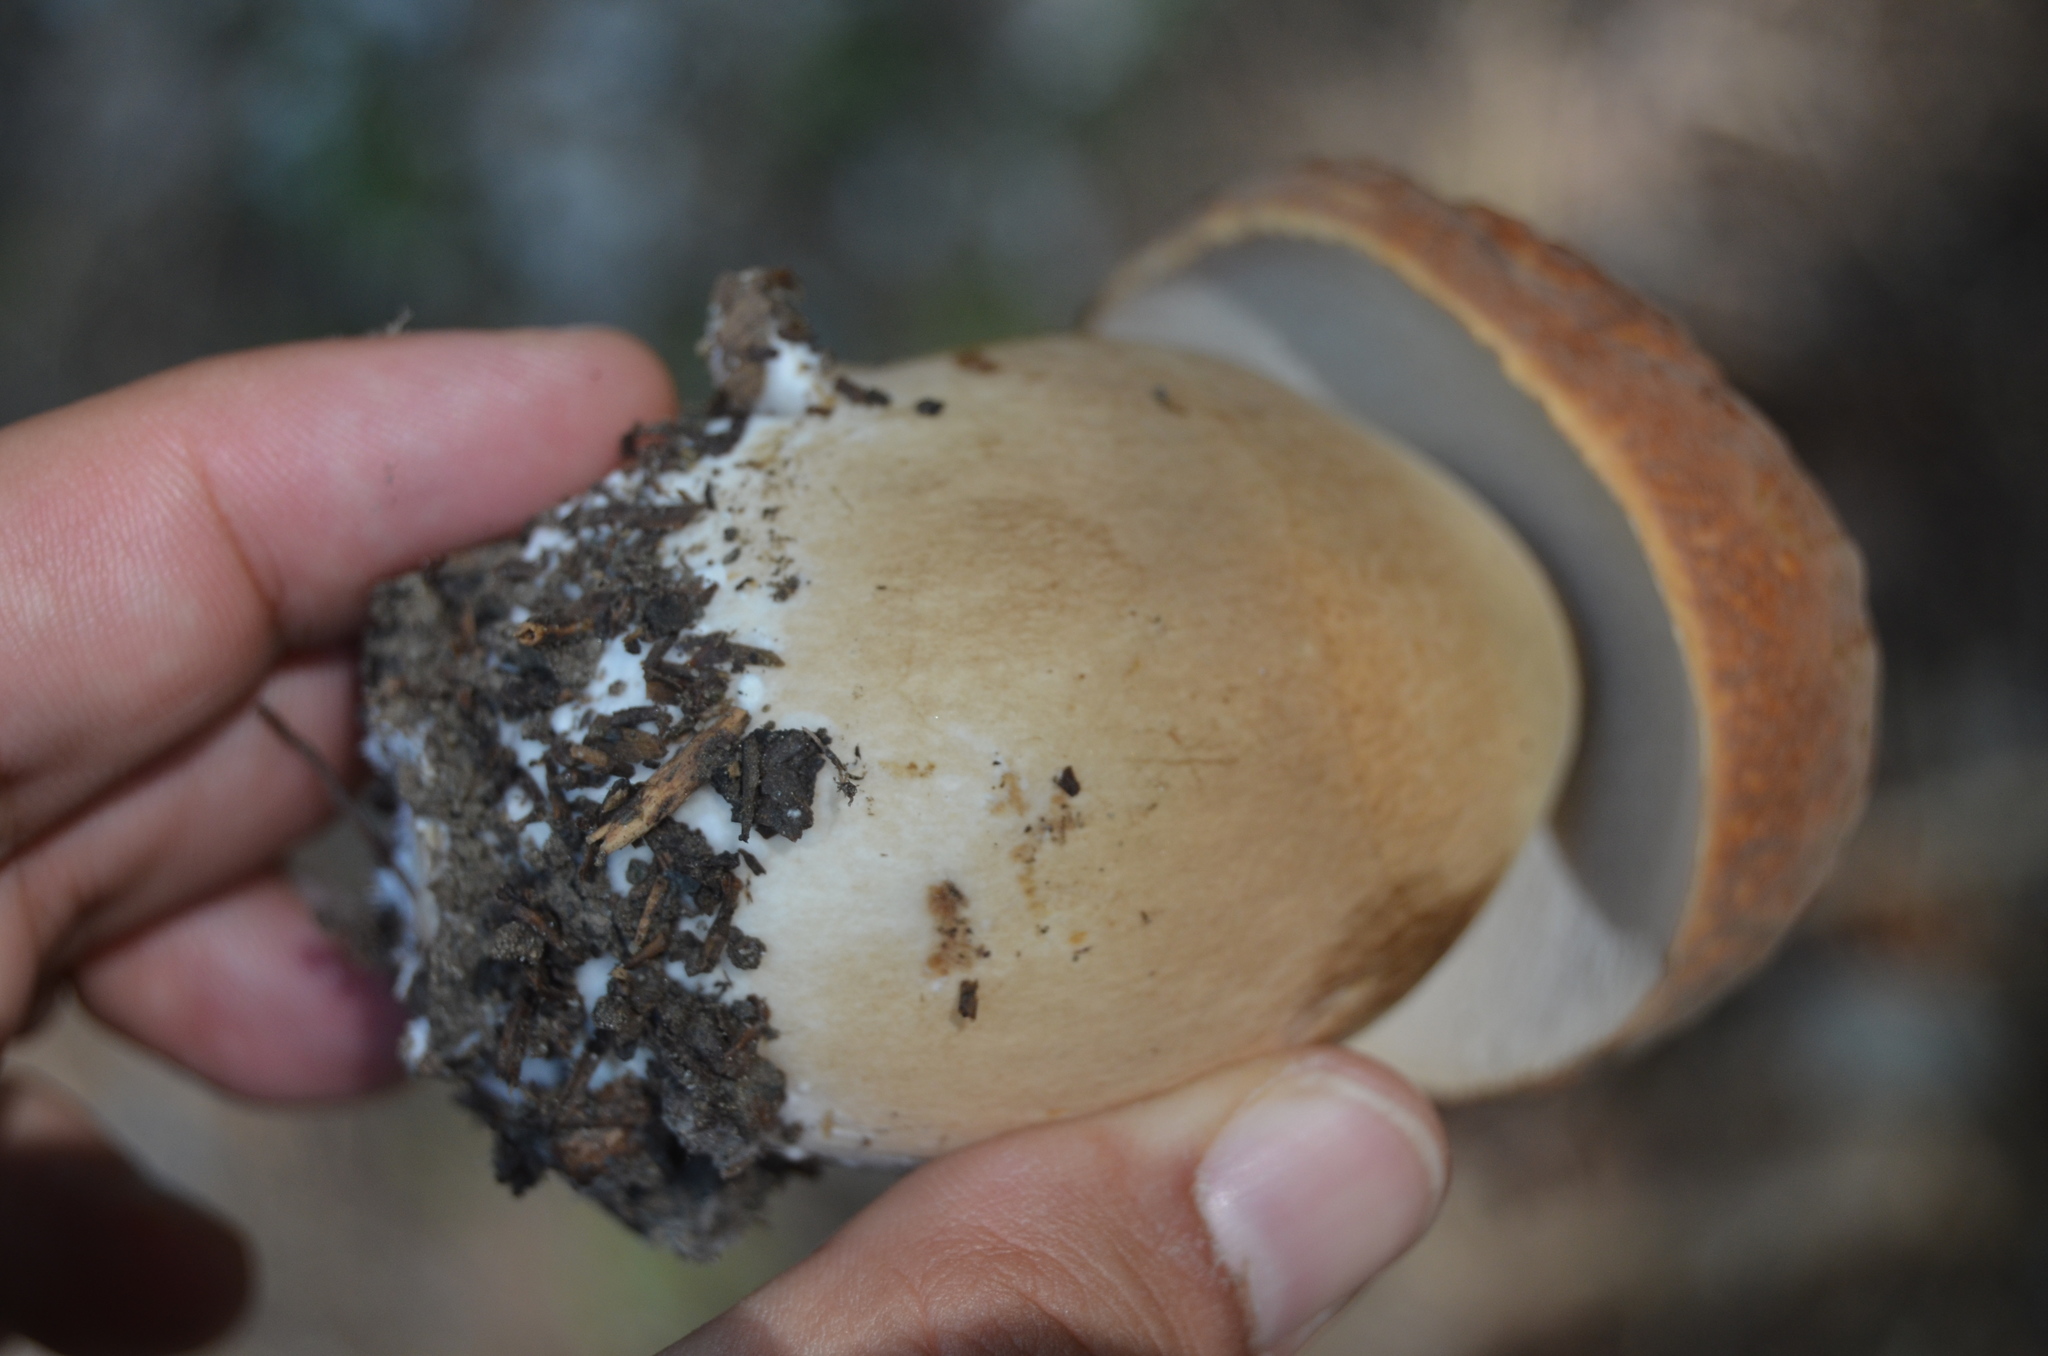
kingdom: Fungi
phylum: Basidiomycota
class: Agaricomycetes
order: Boletales
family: Boletaceae
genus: Boletus
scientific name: Boletus reticulatus
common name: Summer bolete
